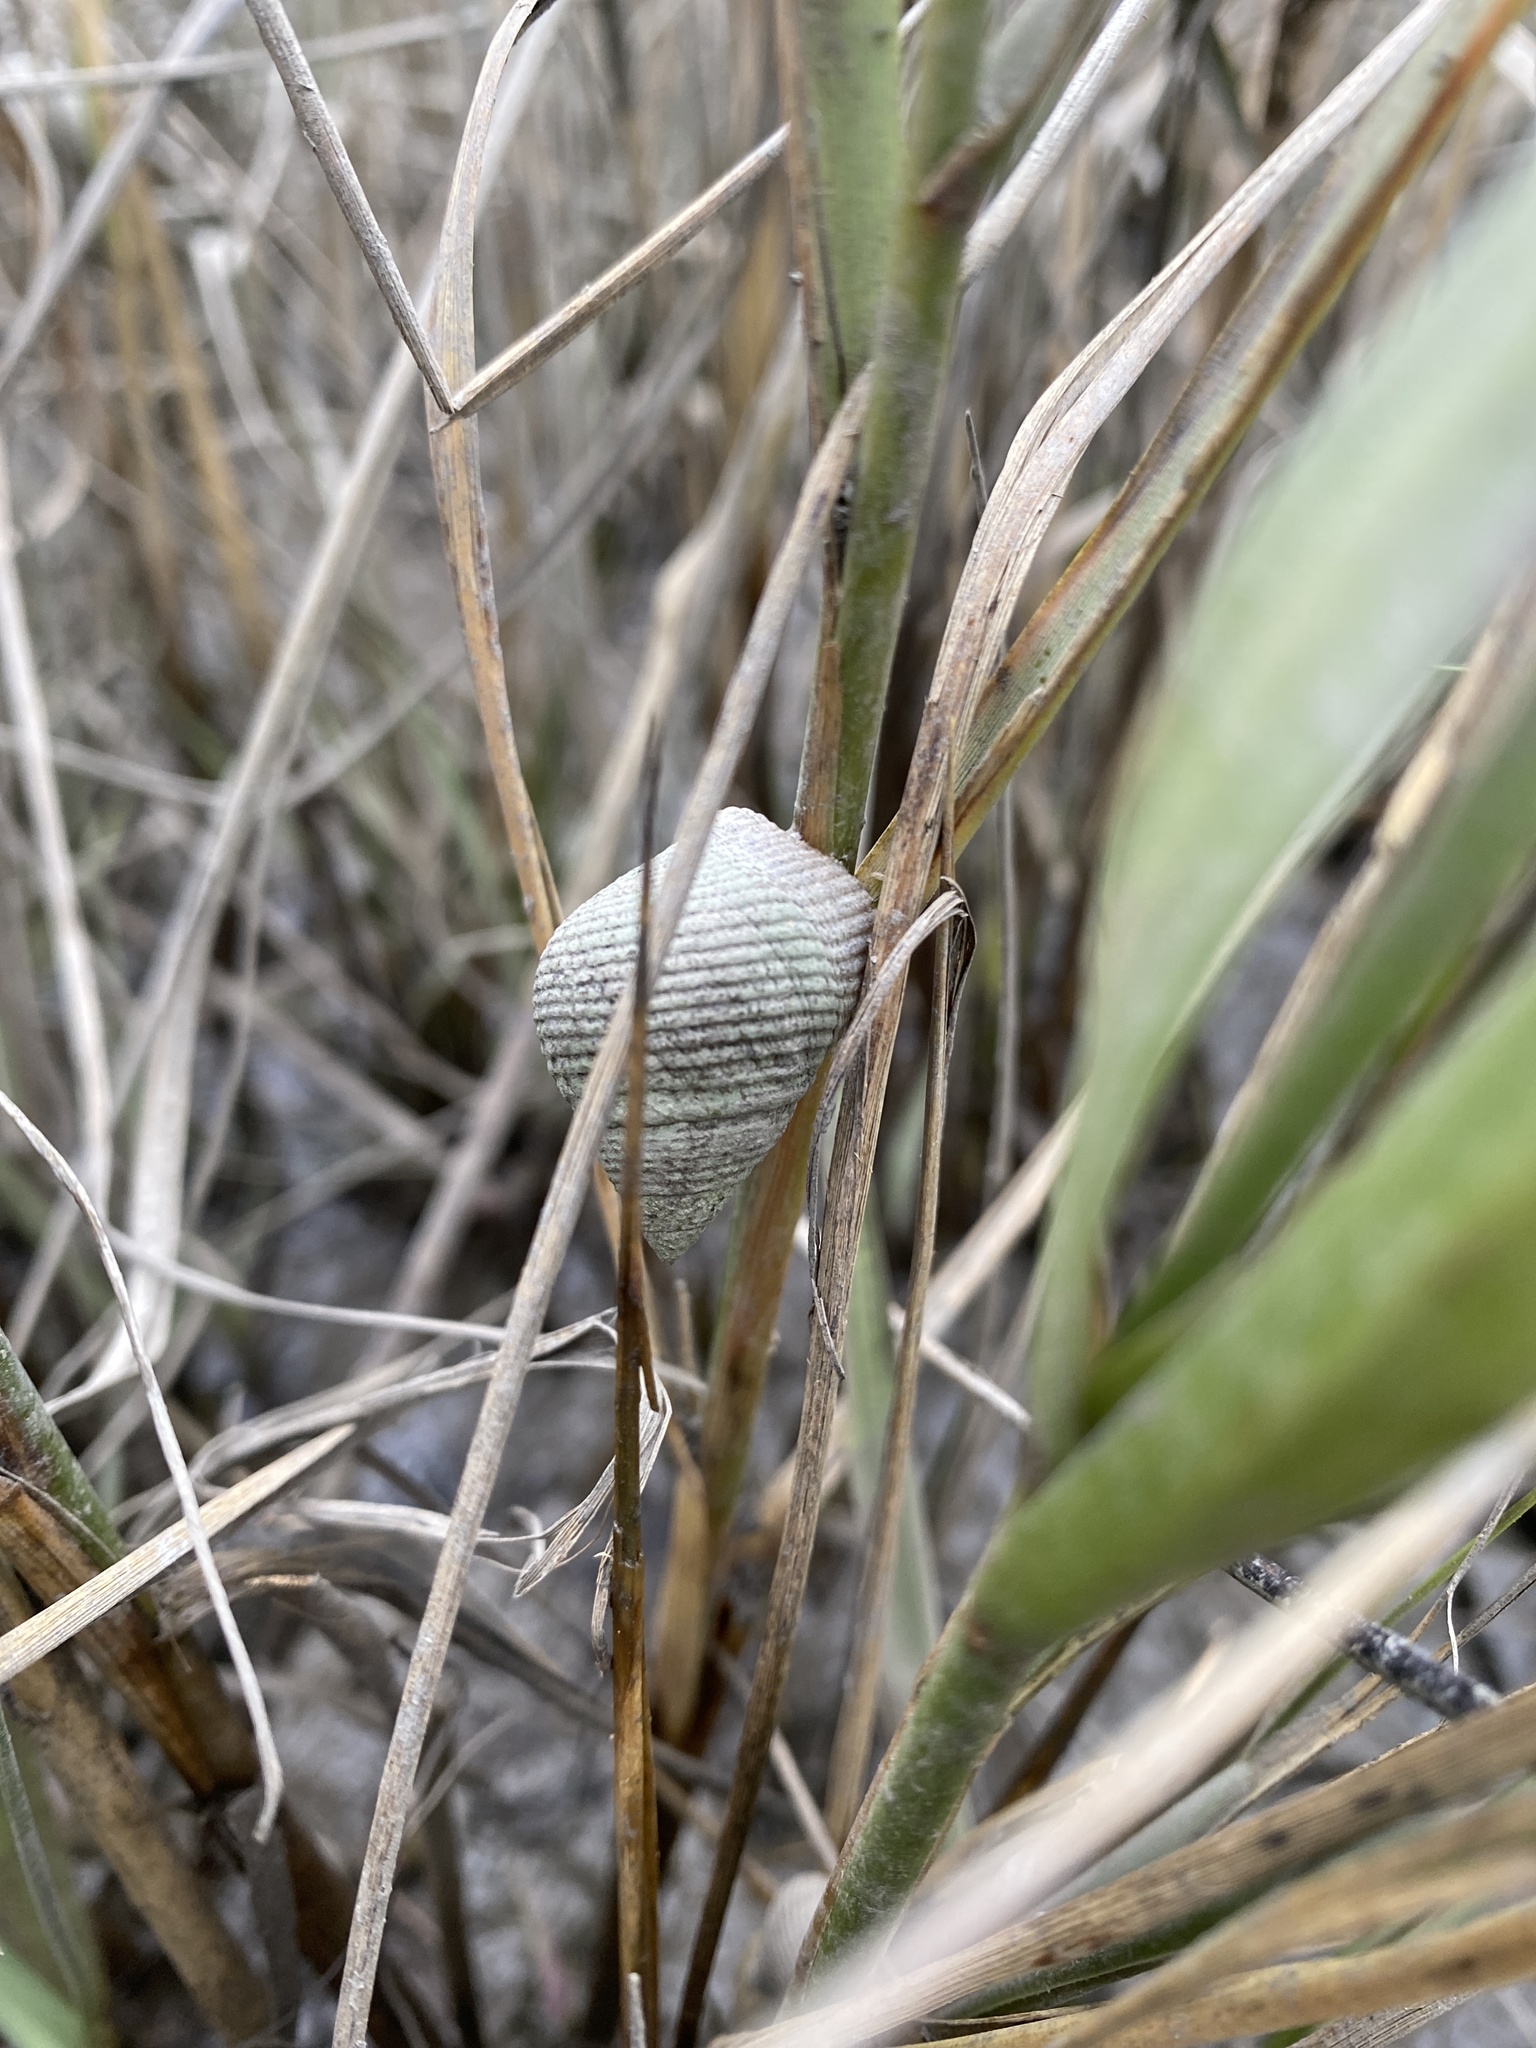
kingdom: Animalia
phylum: Mollusca
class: Gastropoda
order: Littorinimorpha
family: Littorinidae
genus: Littoraria
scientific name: Littoraria irrorata
